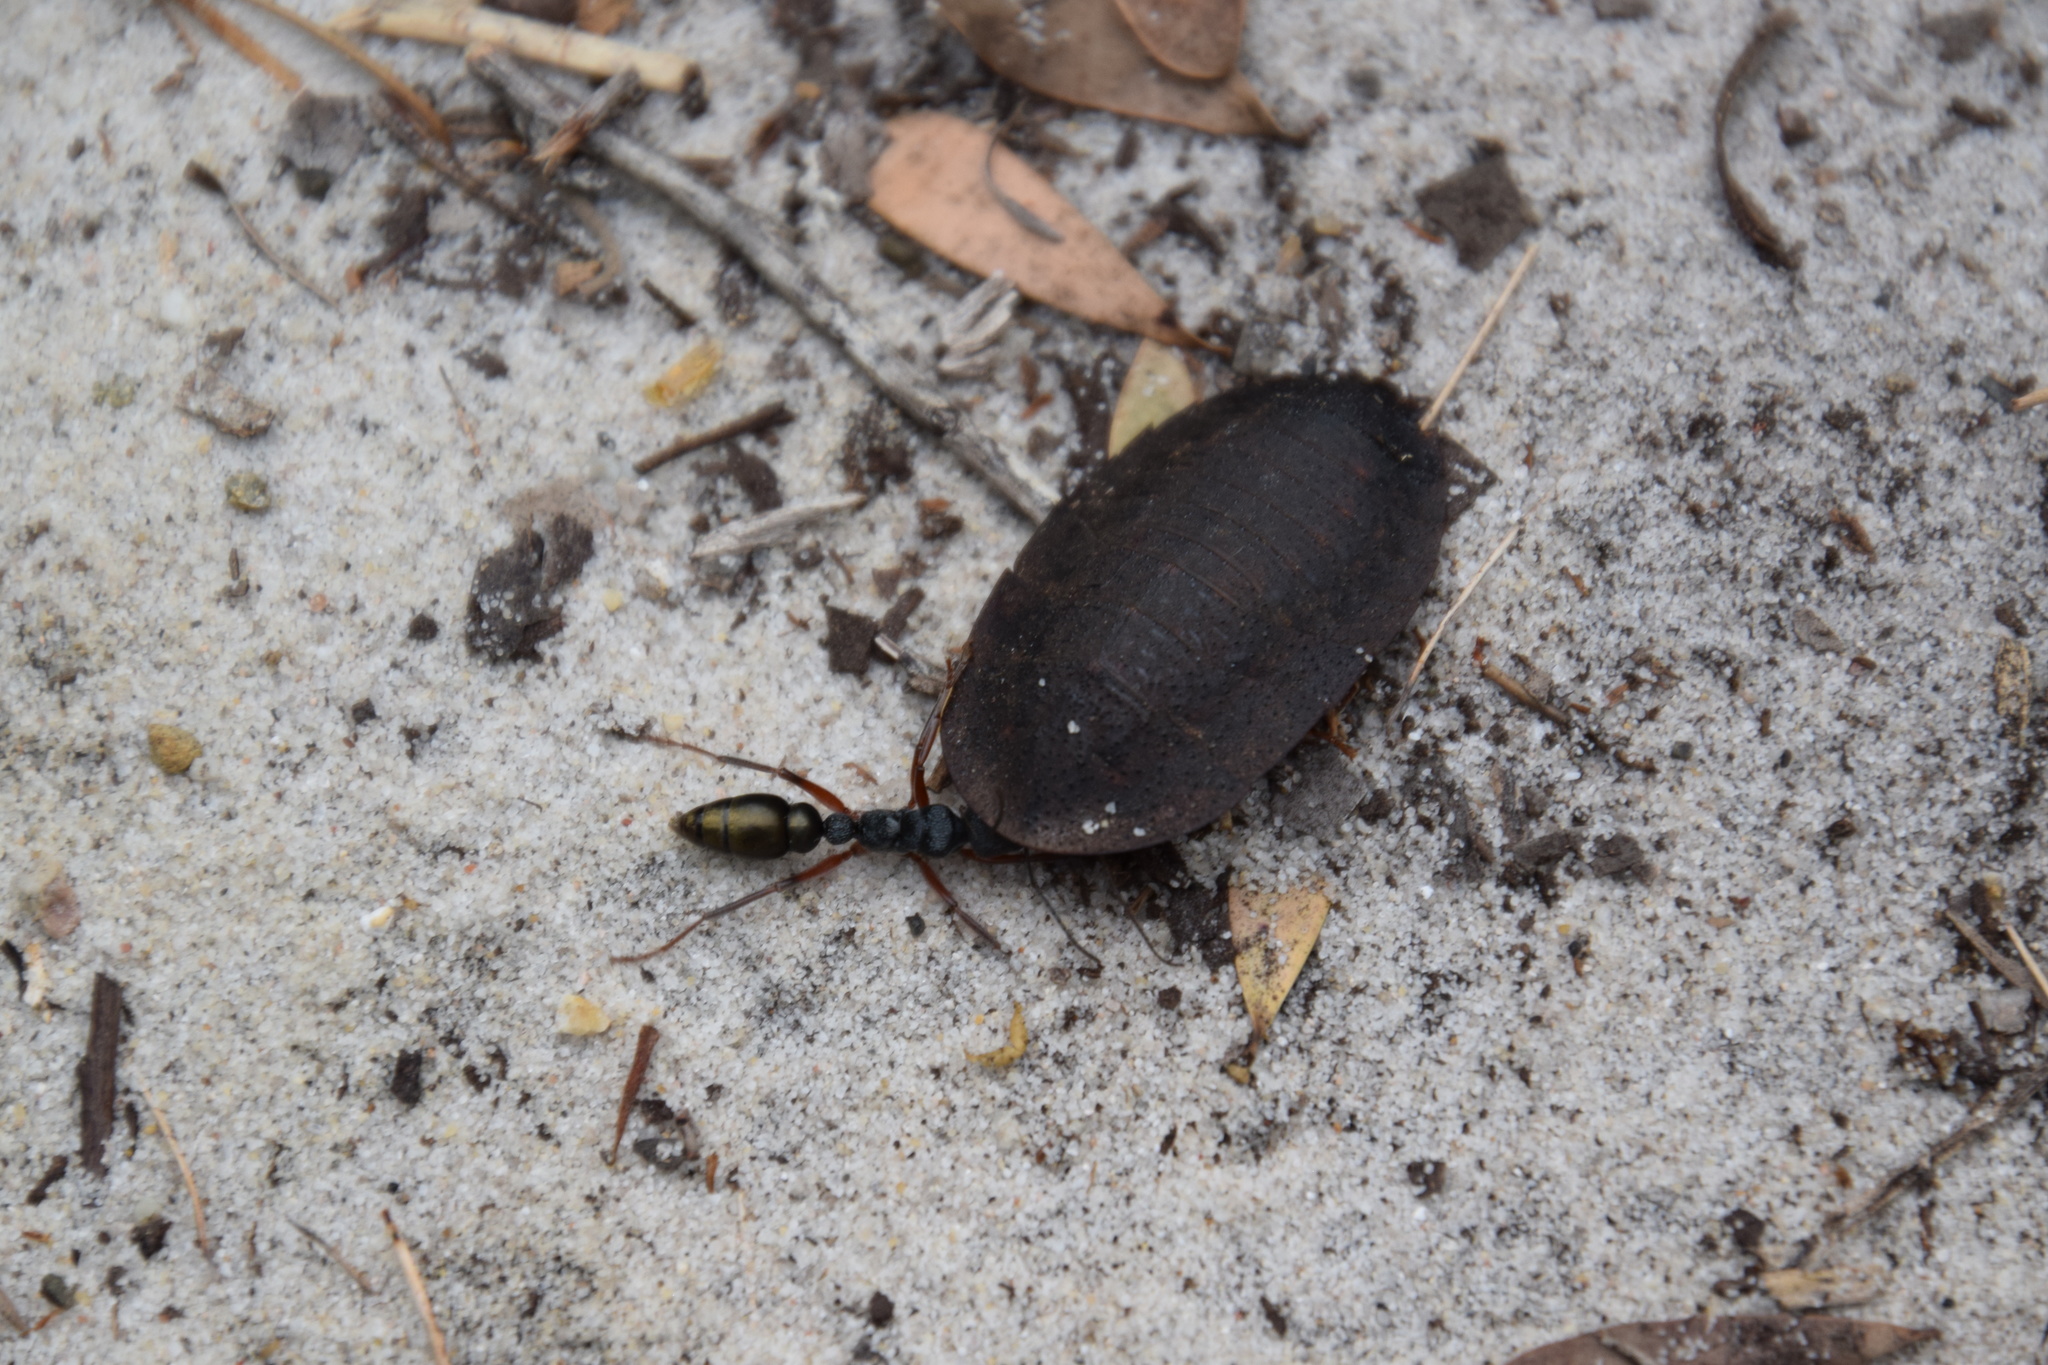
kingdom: Animalia
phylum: Arthropoda
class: Insecta
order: Hymenoptera
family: Formicidae
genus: Myrmecia
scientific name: Myrmecia fulvipes
